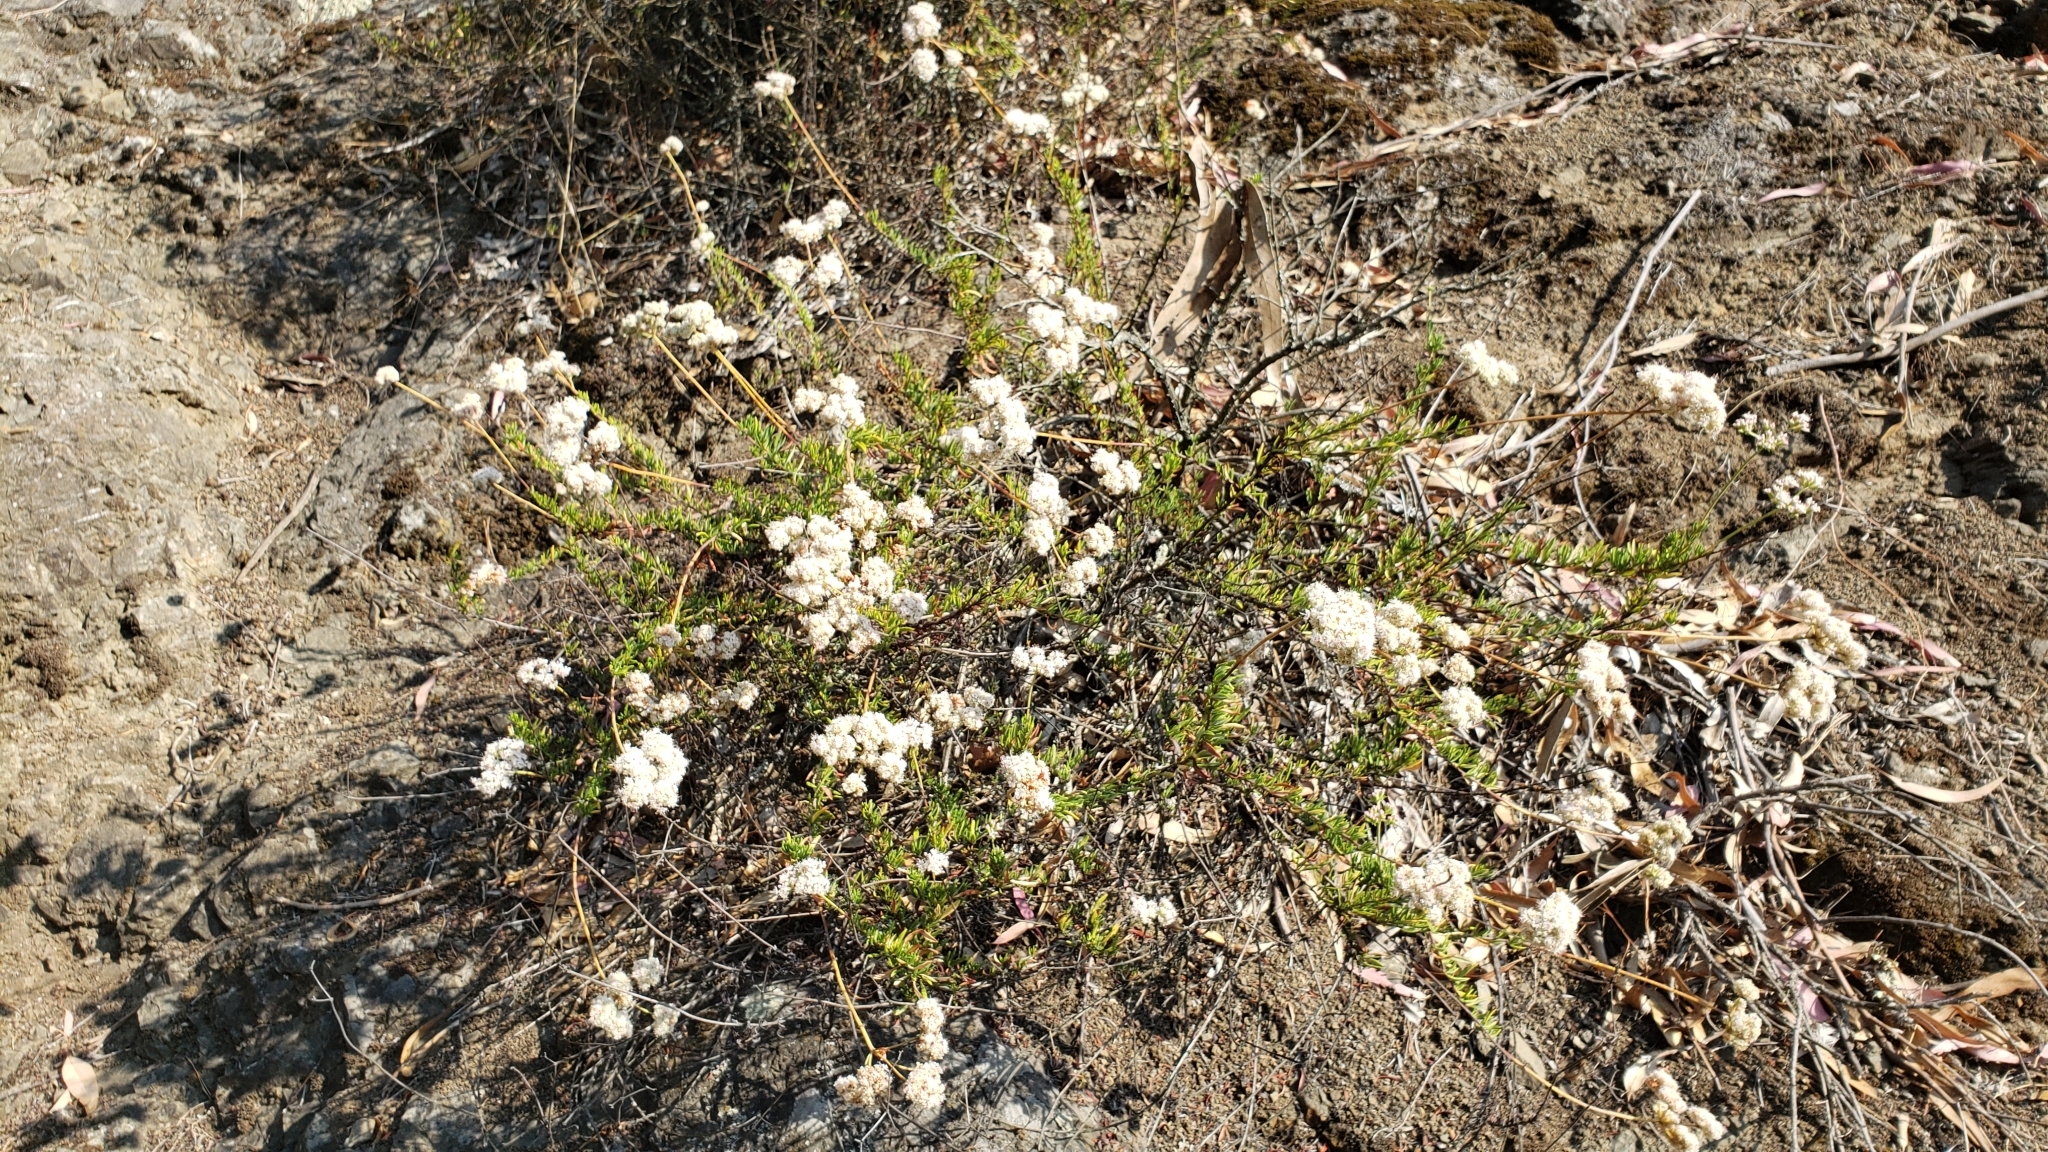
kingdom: Plantae
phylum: Tracheophyta
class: Magnoliopsida
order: Caryophyllales
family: Polygonaceae
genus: Eriogonum
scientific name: Eriogonum fasciculatum
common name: California wild buckwheat
